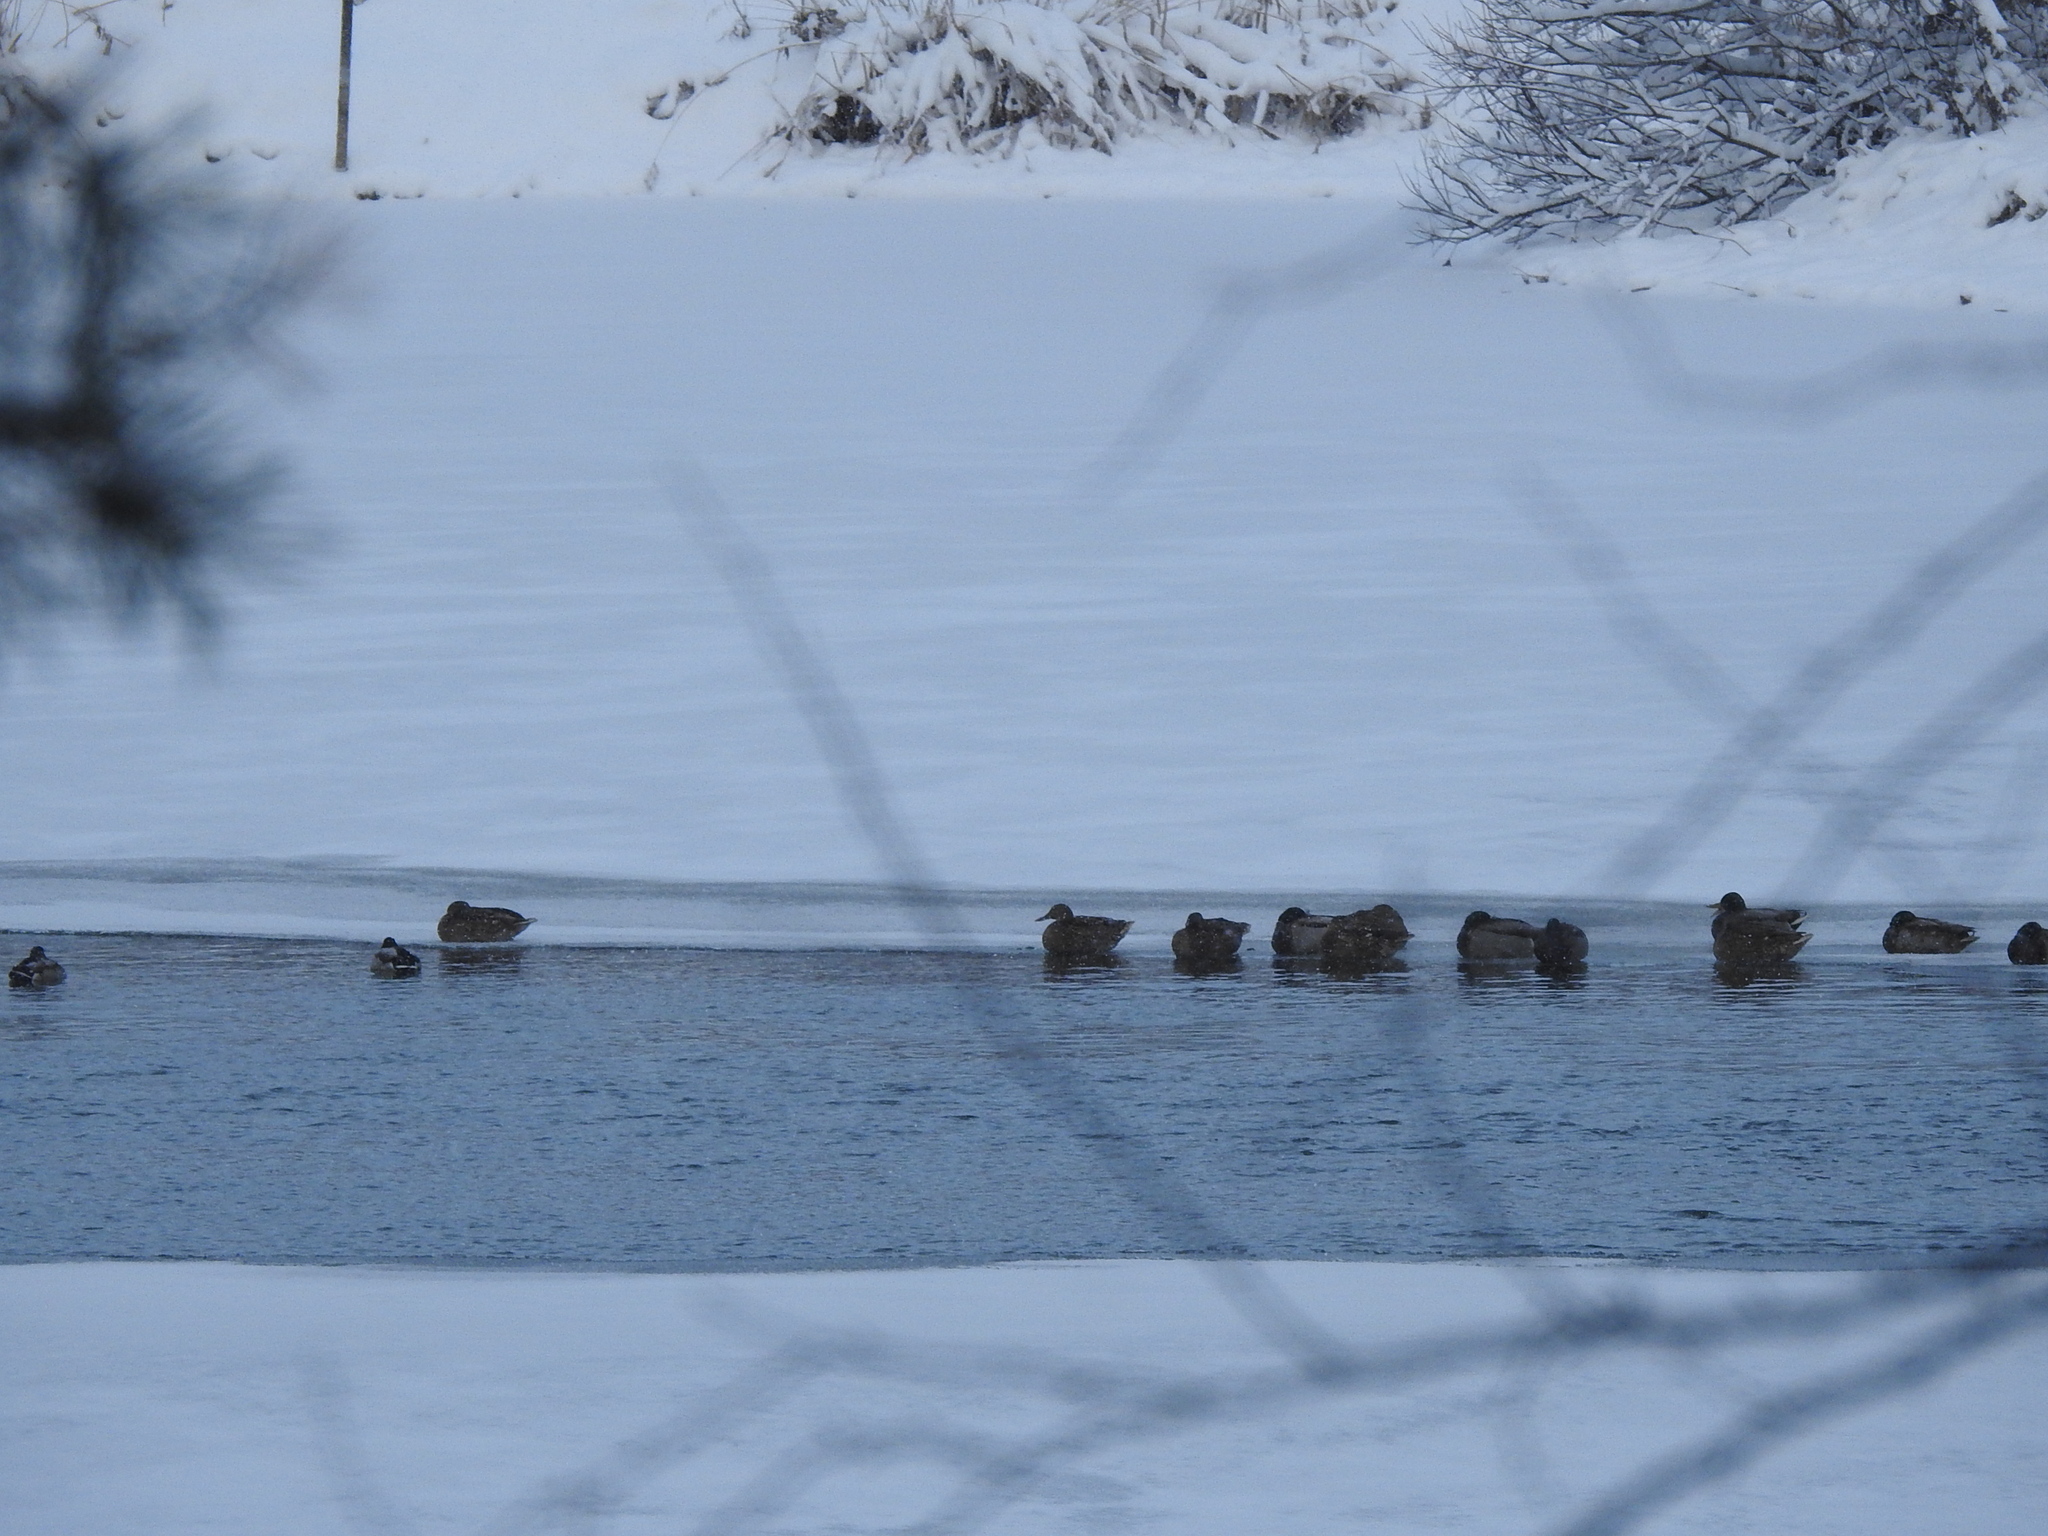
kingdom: Animalia
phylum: Chordata
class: Aves
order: Anseriformes
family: Anatidae
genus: Anas
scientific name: Anas platyrhynchos
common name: Mallard
